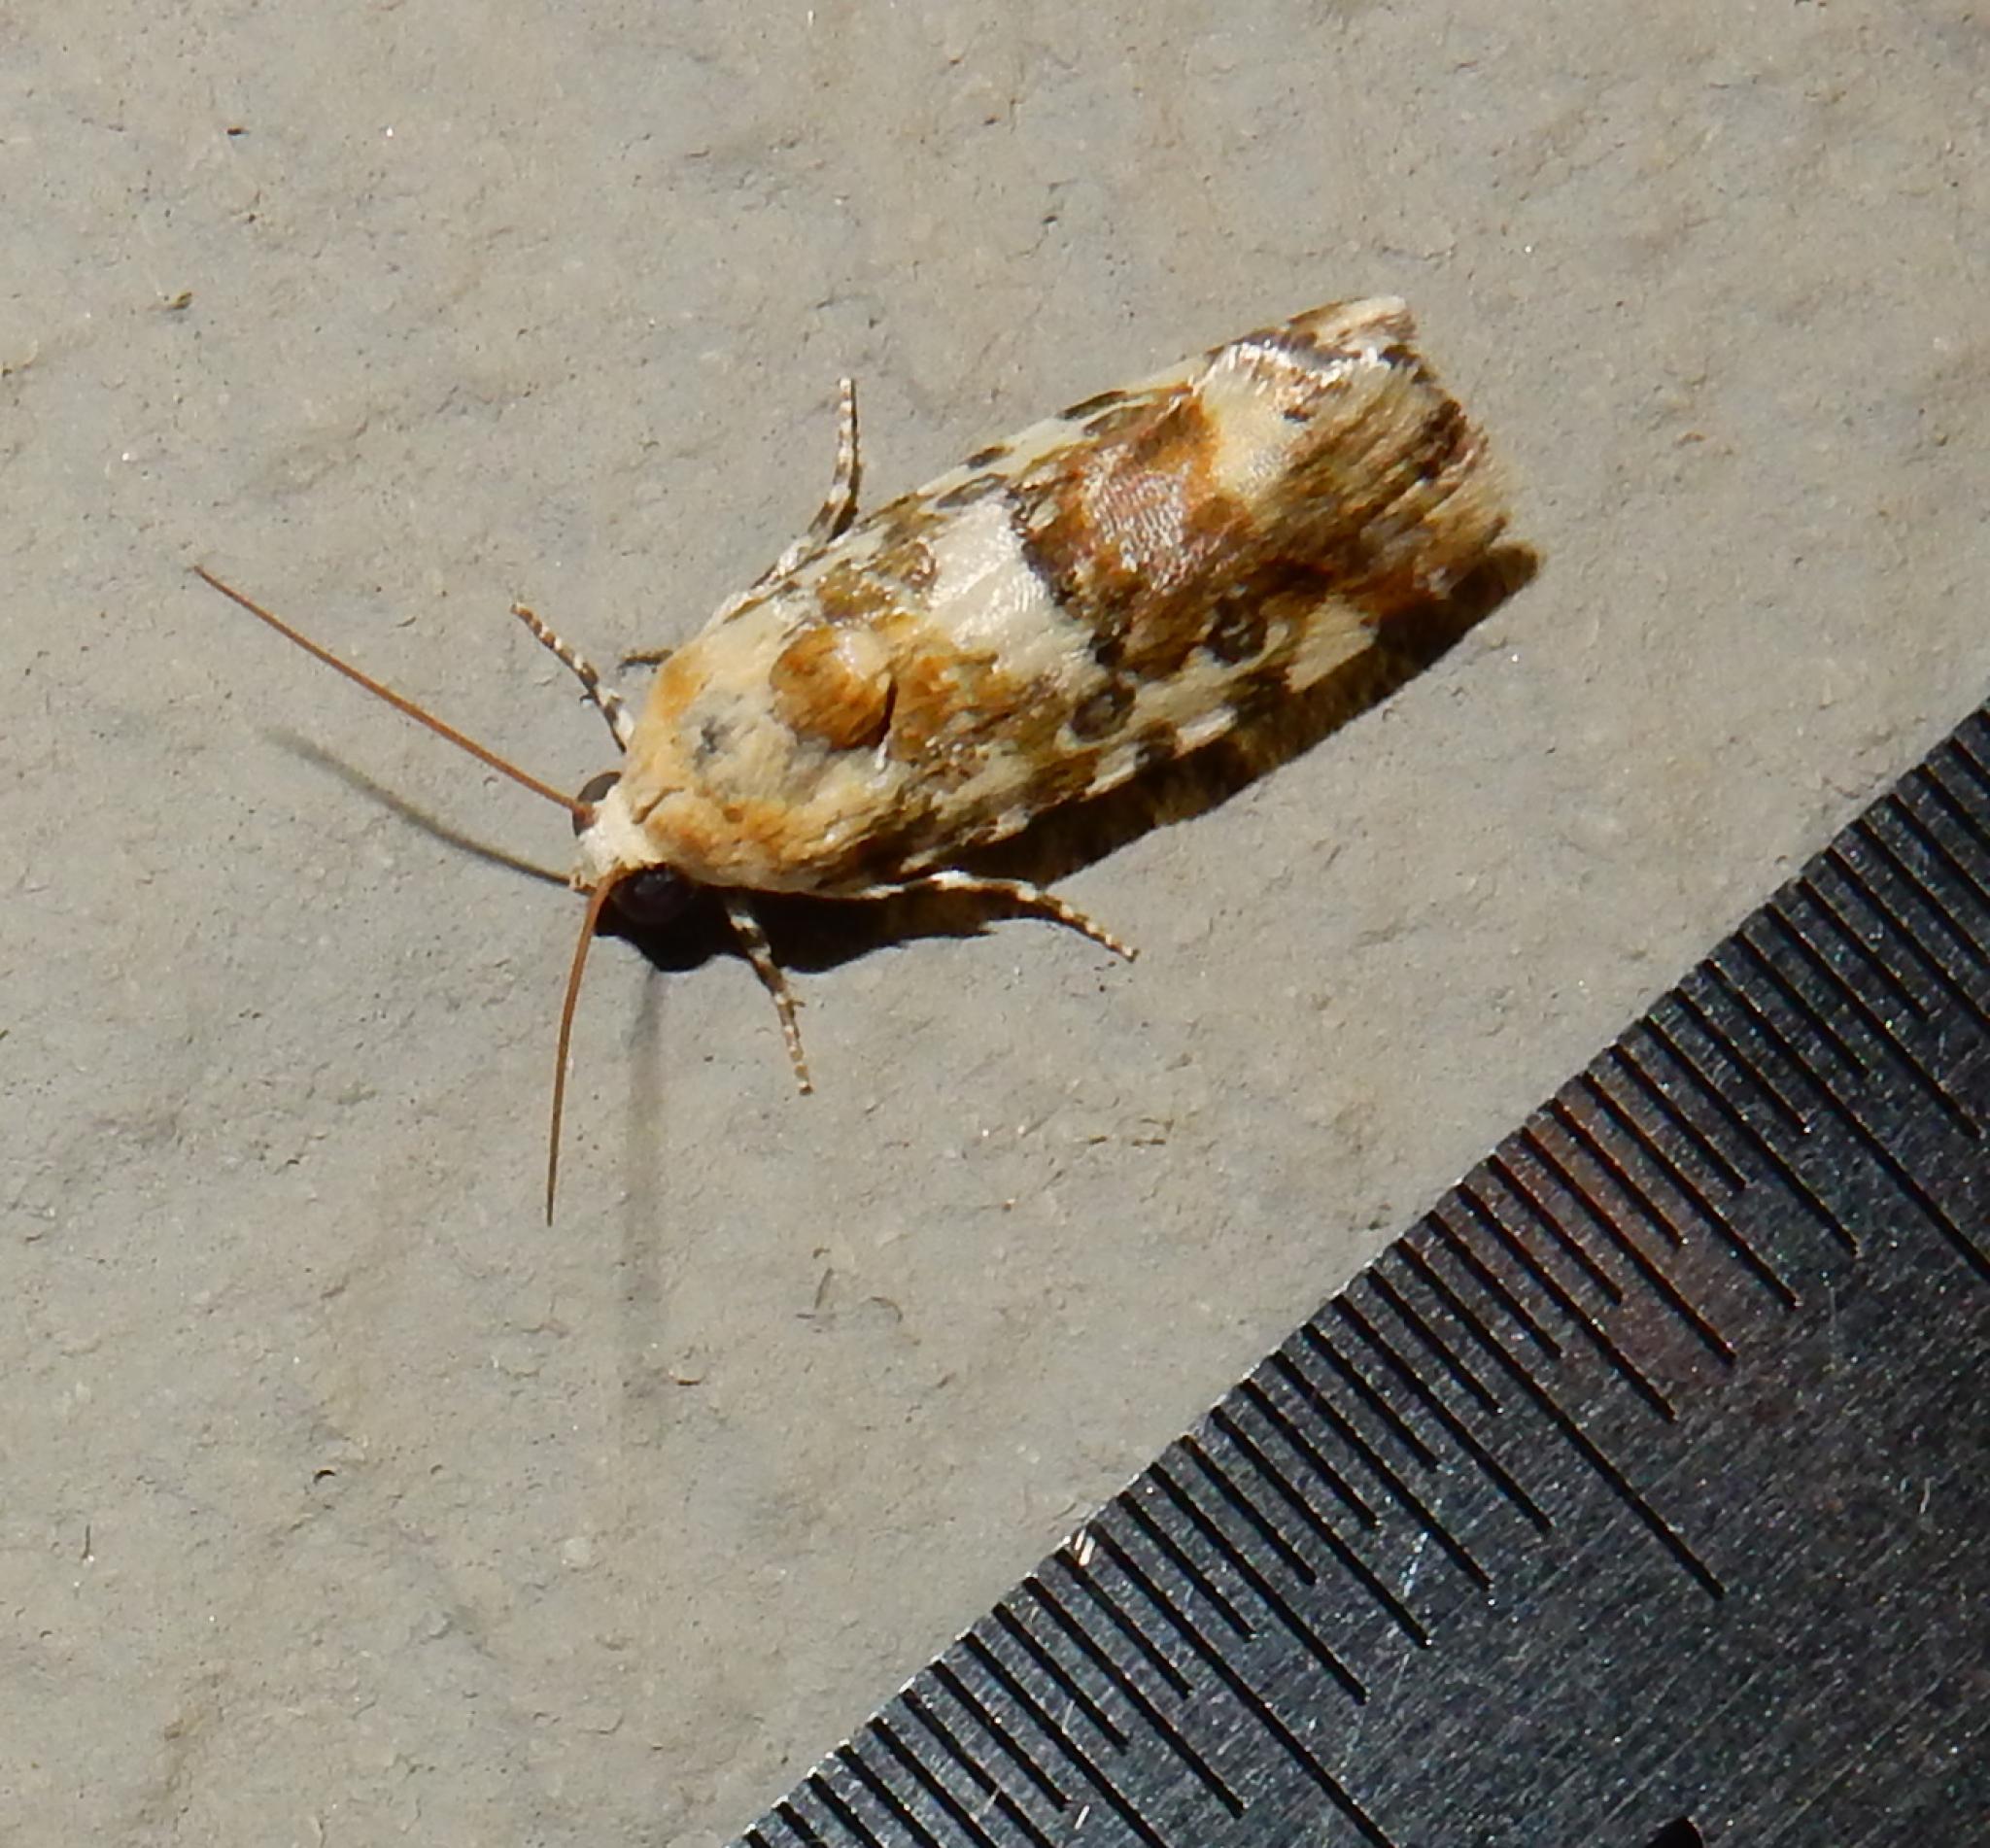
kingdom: Animalia
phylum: Arthropoda
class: Insecta
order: Lepidoptera
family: Noctuidae
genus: Acontia
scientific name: Acontia zelleri
